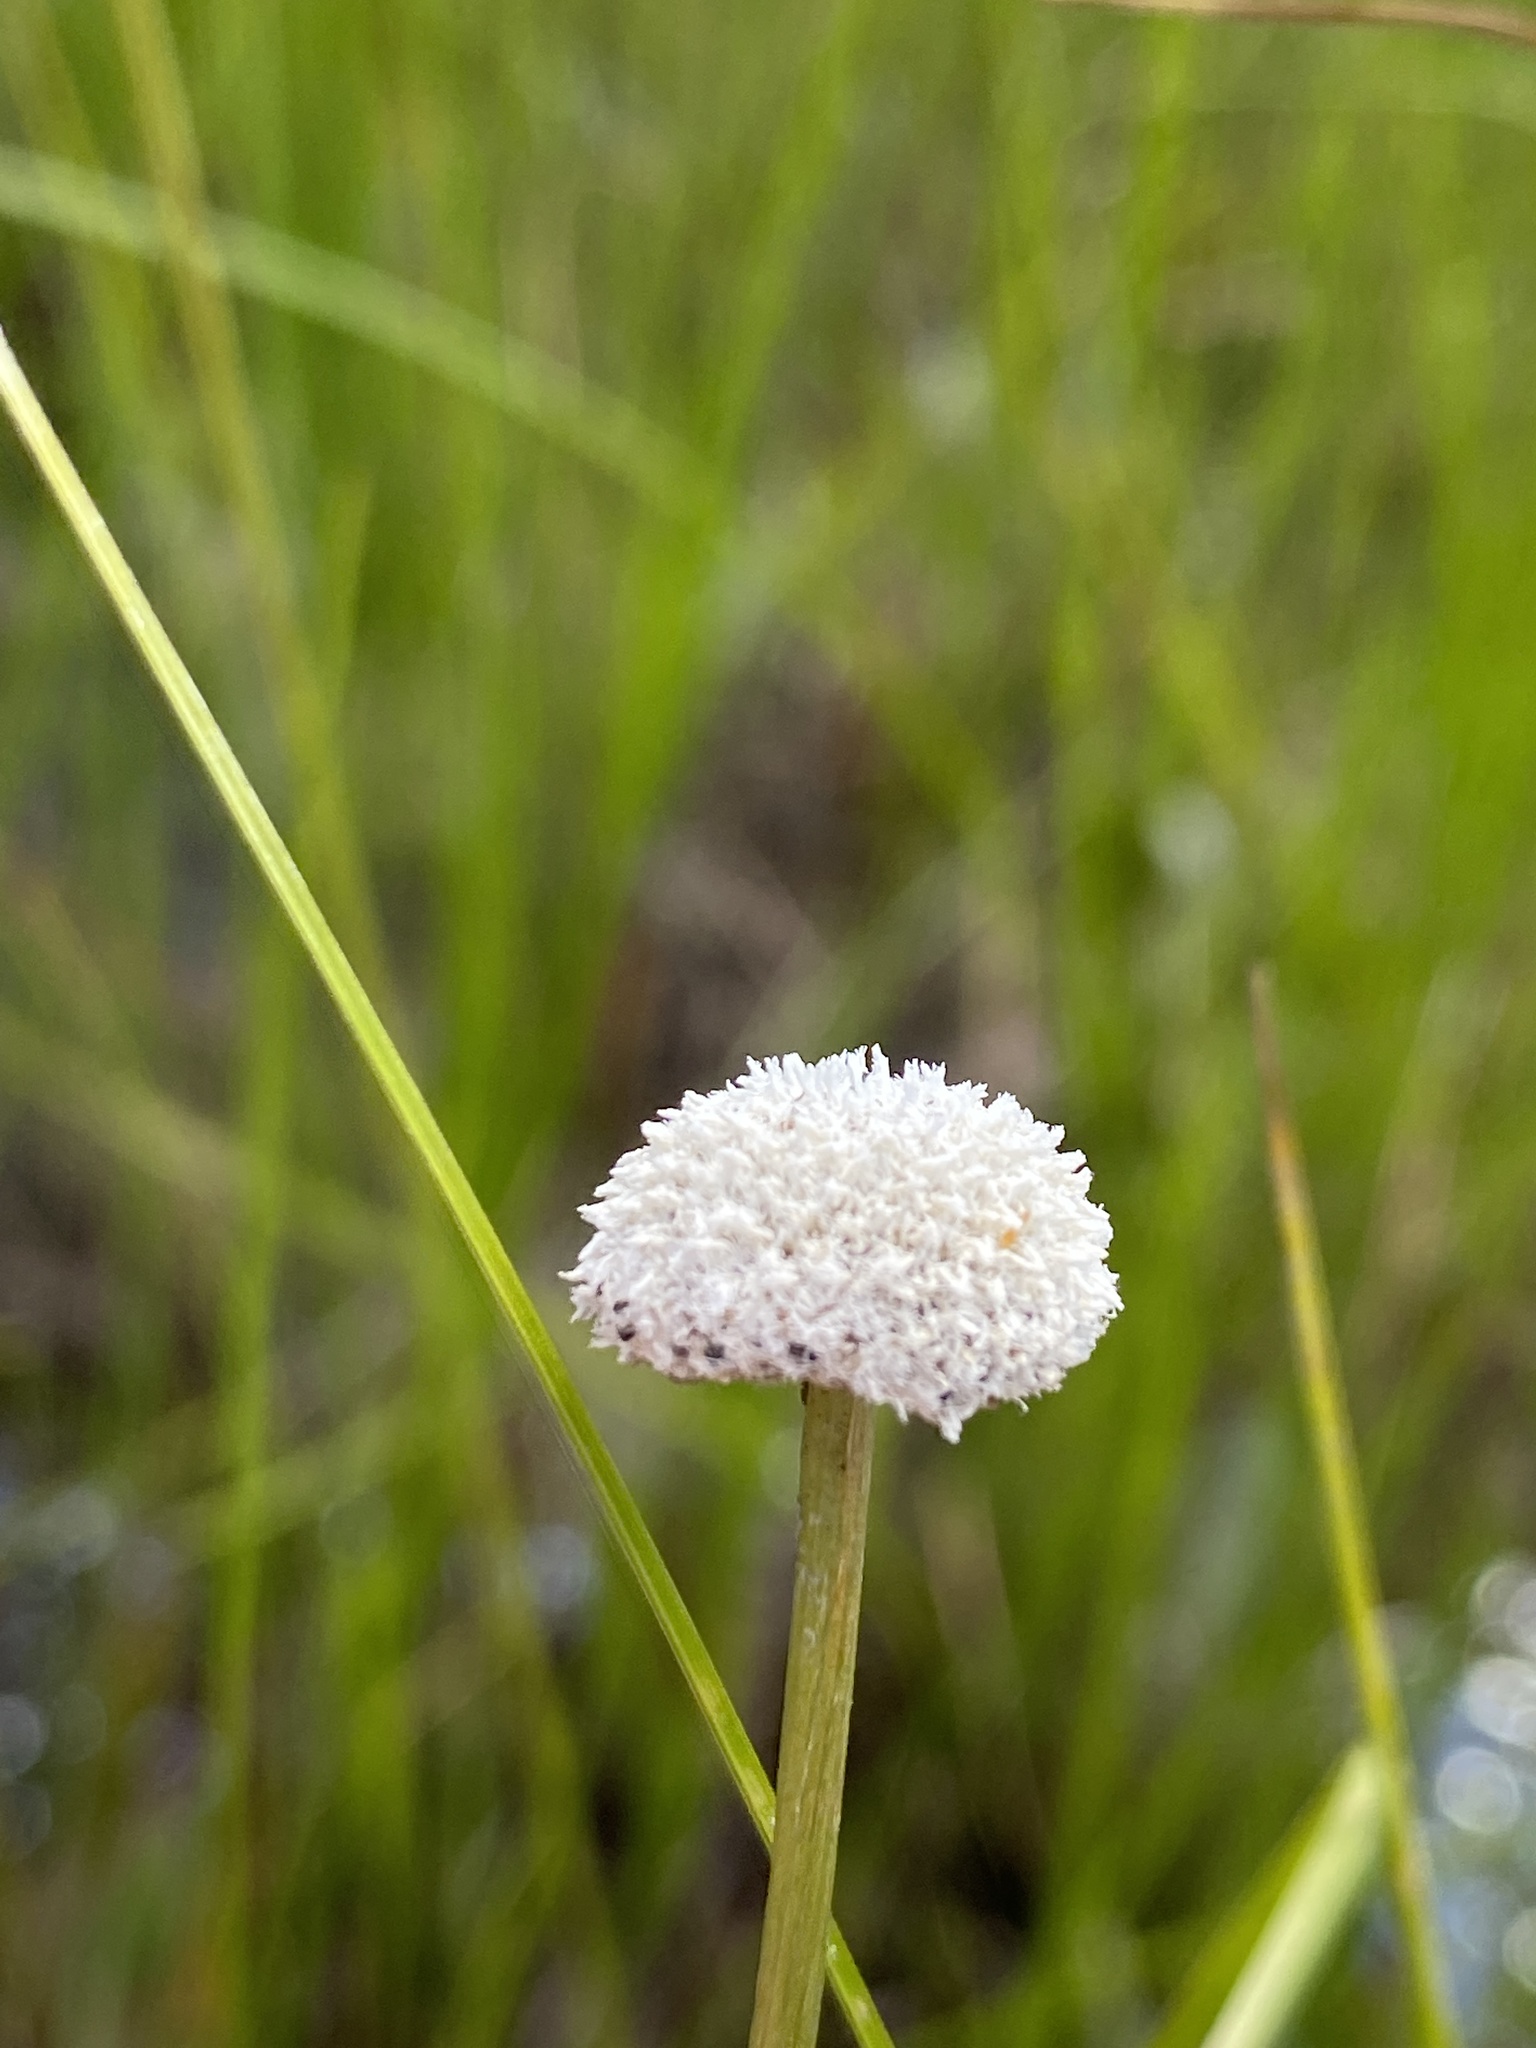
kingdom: Plantae
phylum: Tracheophyta
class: Liliopsida
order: Poales
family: Eriocaulaceae
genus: Eriocaulon
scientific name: Eriocaulon compressum
